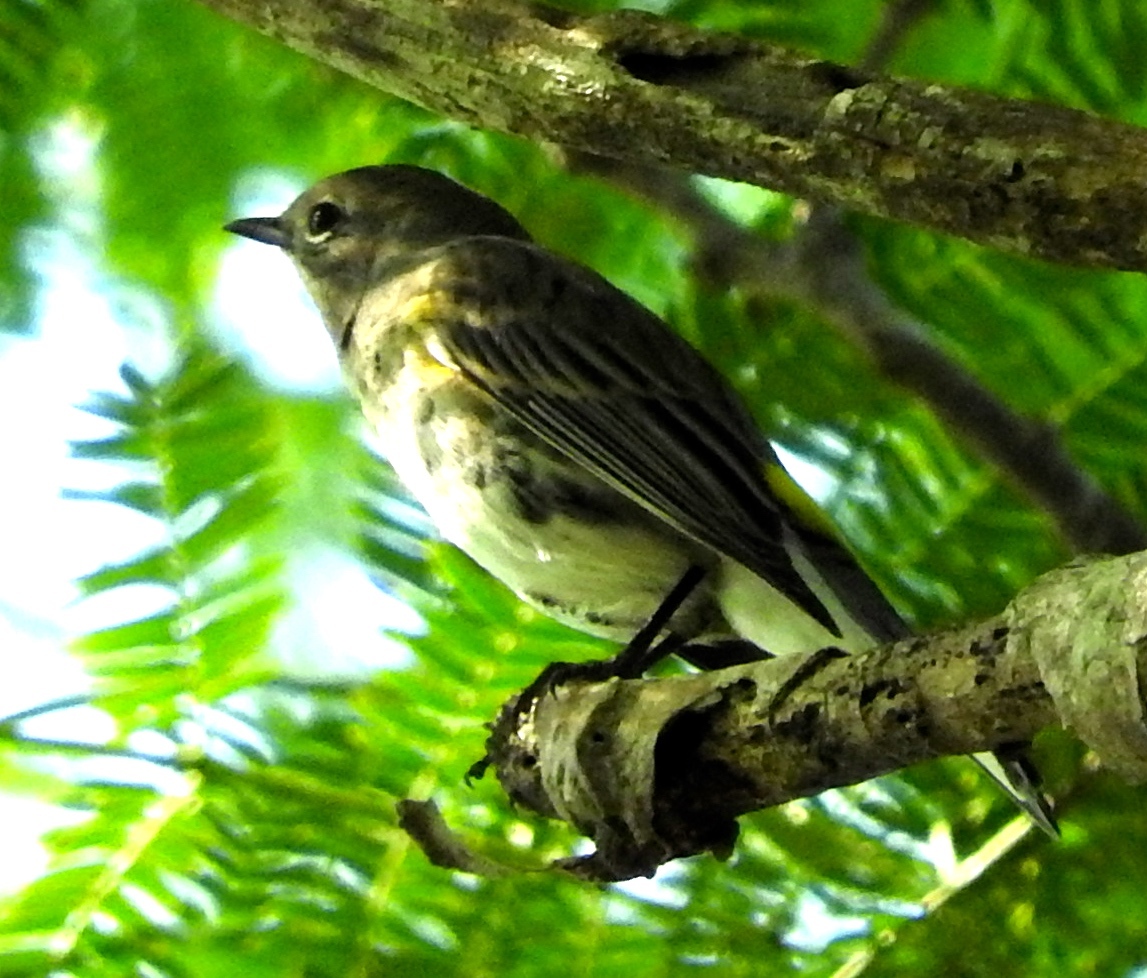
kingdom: Animalia
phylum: Chordata
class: Aves
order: Passeriformes
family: Parulidae
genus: Setophaga
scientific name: Setophaga coronata
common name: Myrtle warbler
